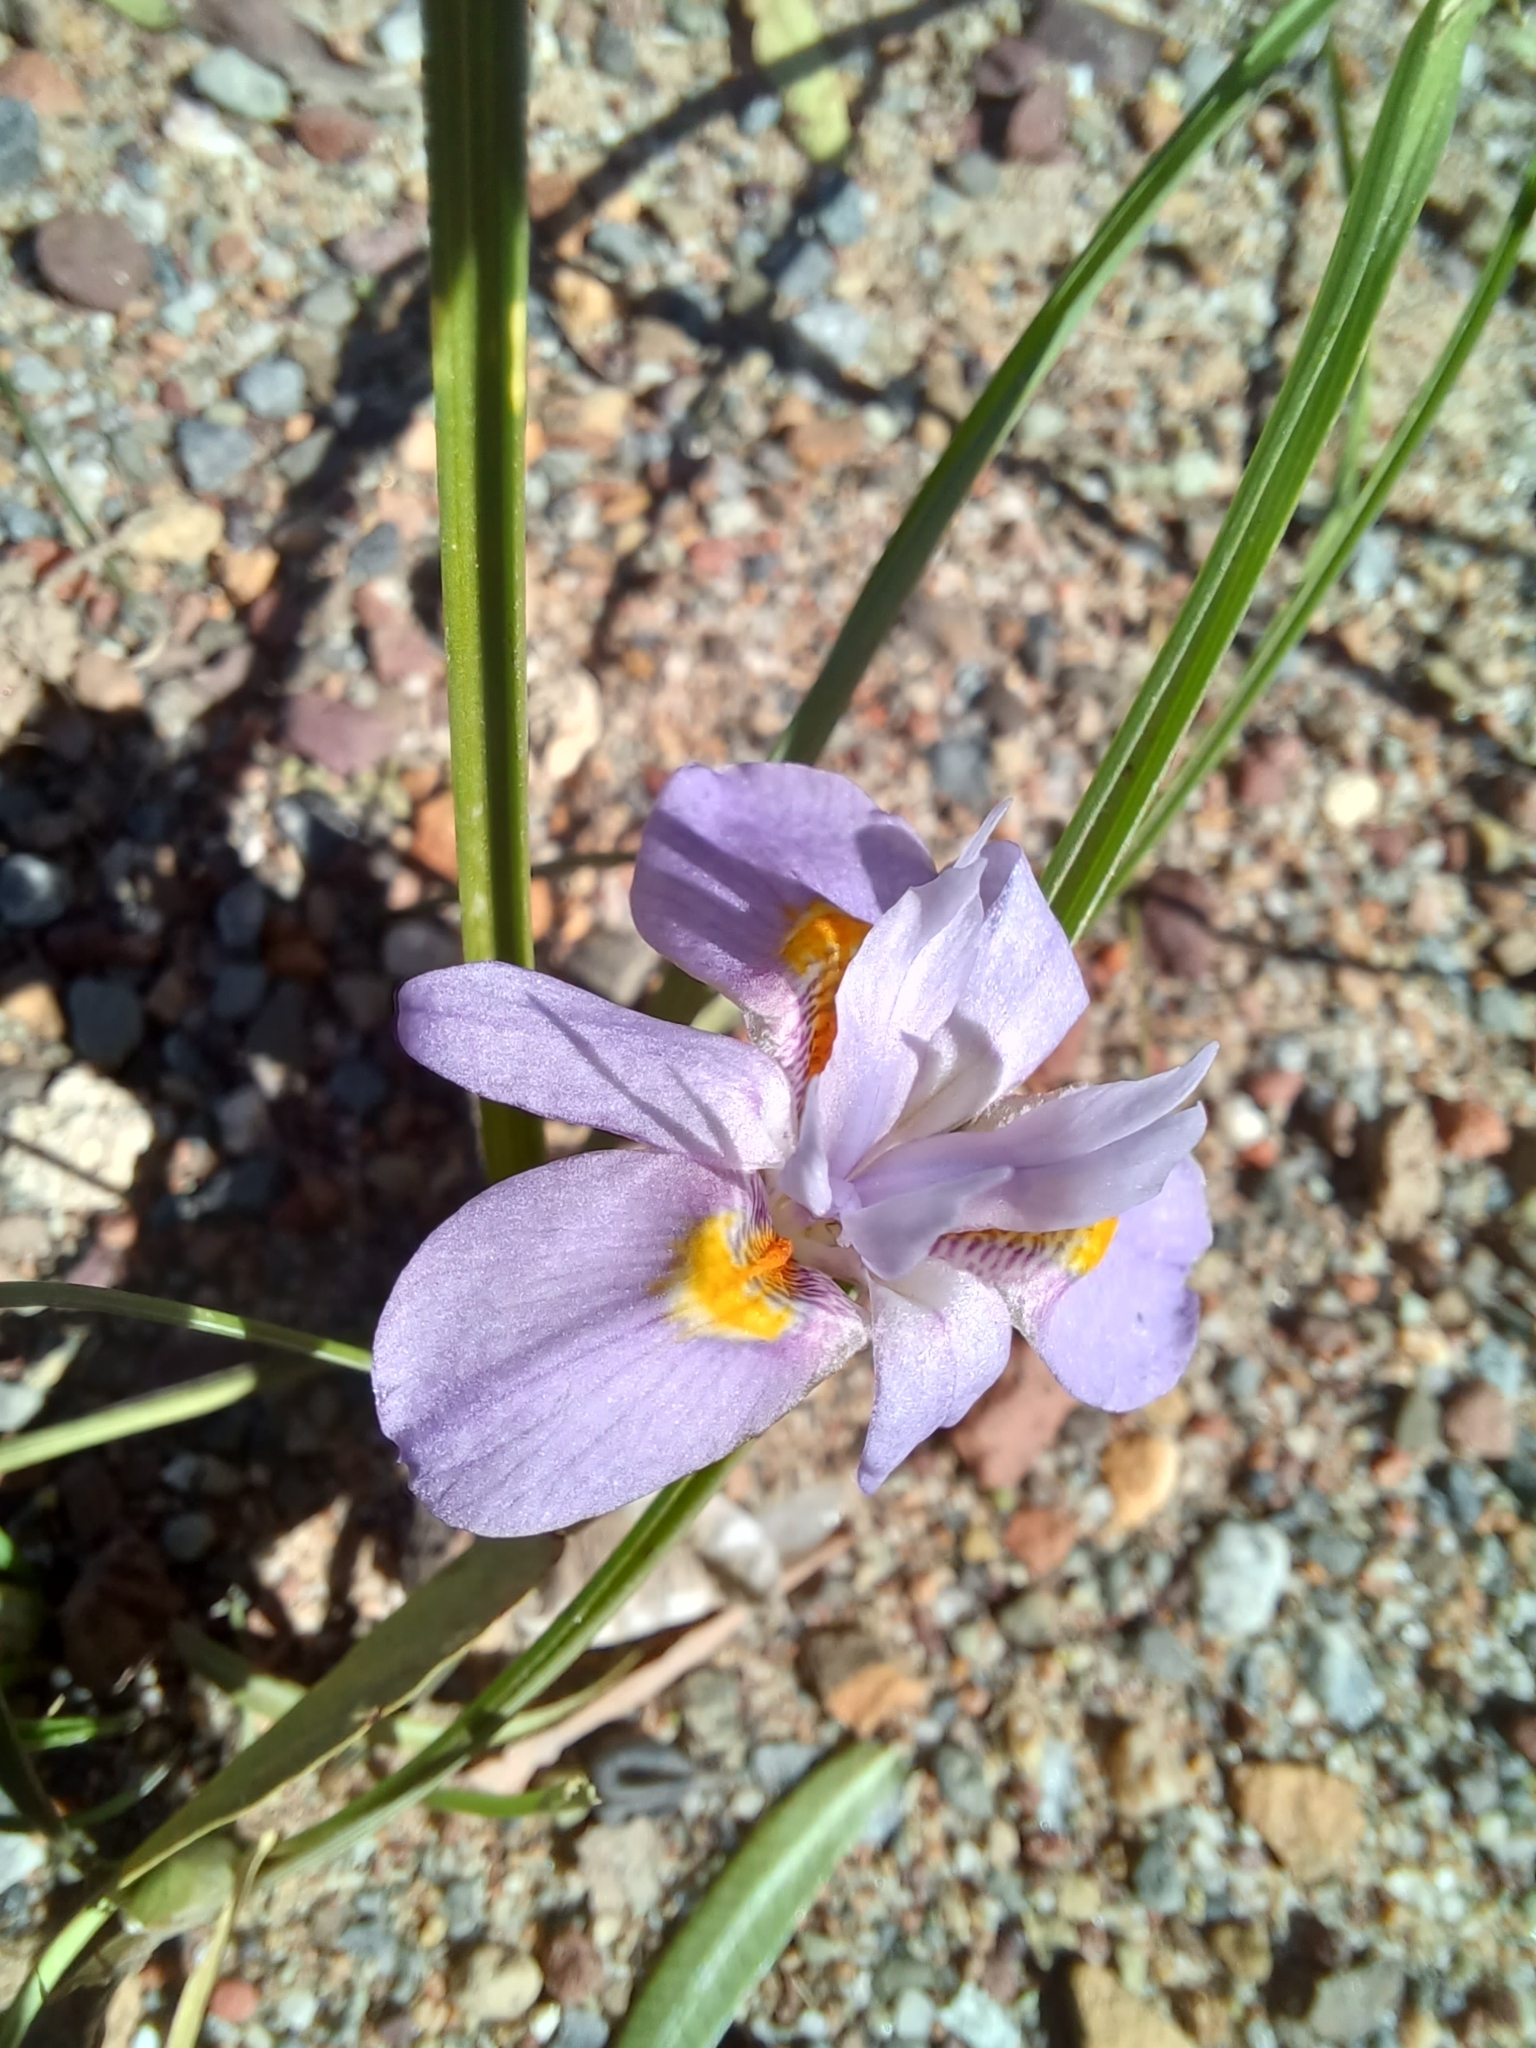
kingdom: Plantae
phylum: Tracheophyta
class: Liliopsida
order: Asparagales
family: Iridaceae
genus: Moraea
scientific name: Moraea setifolia
